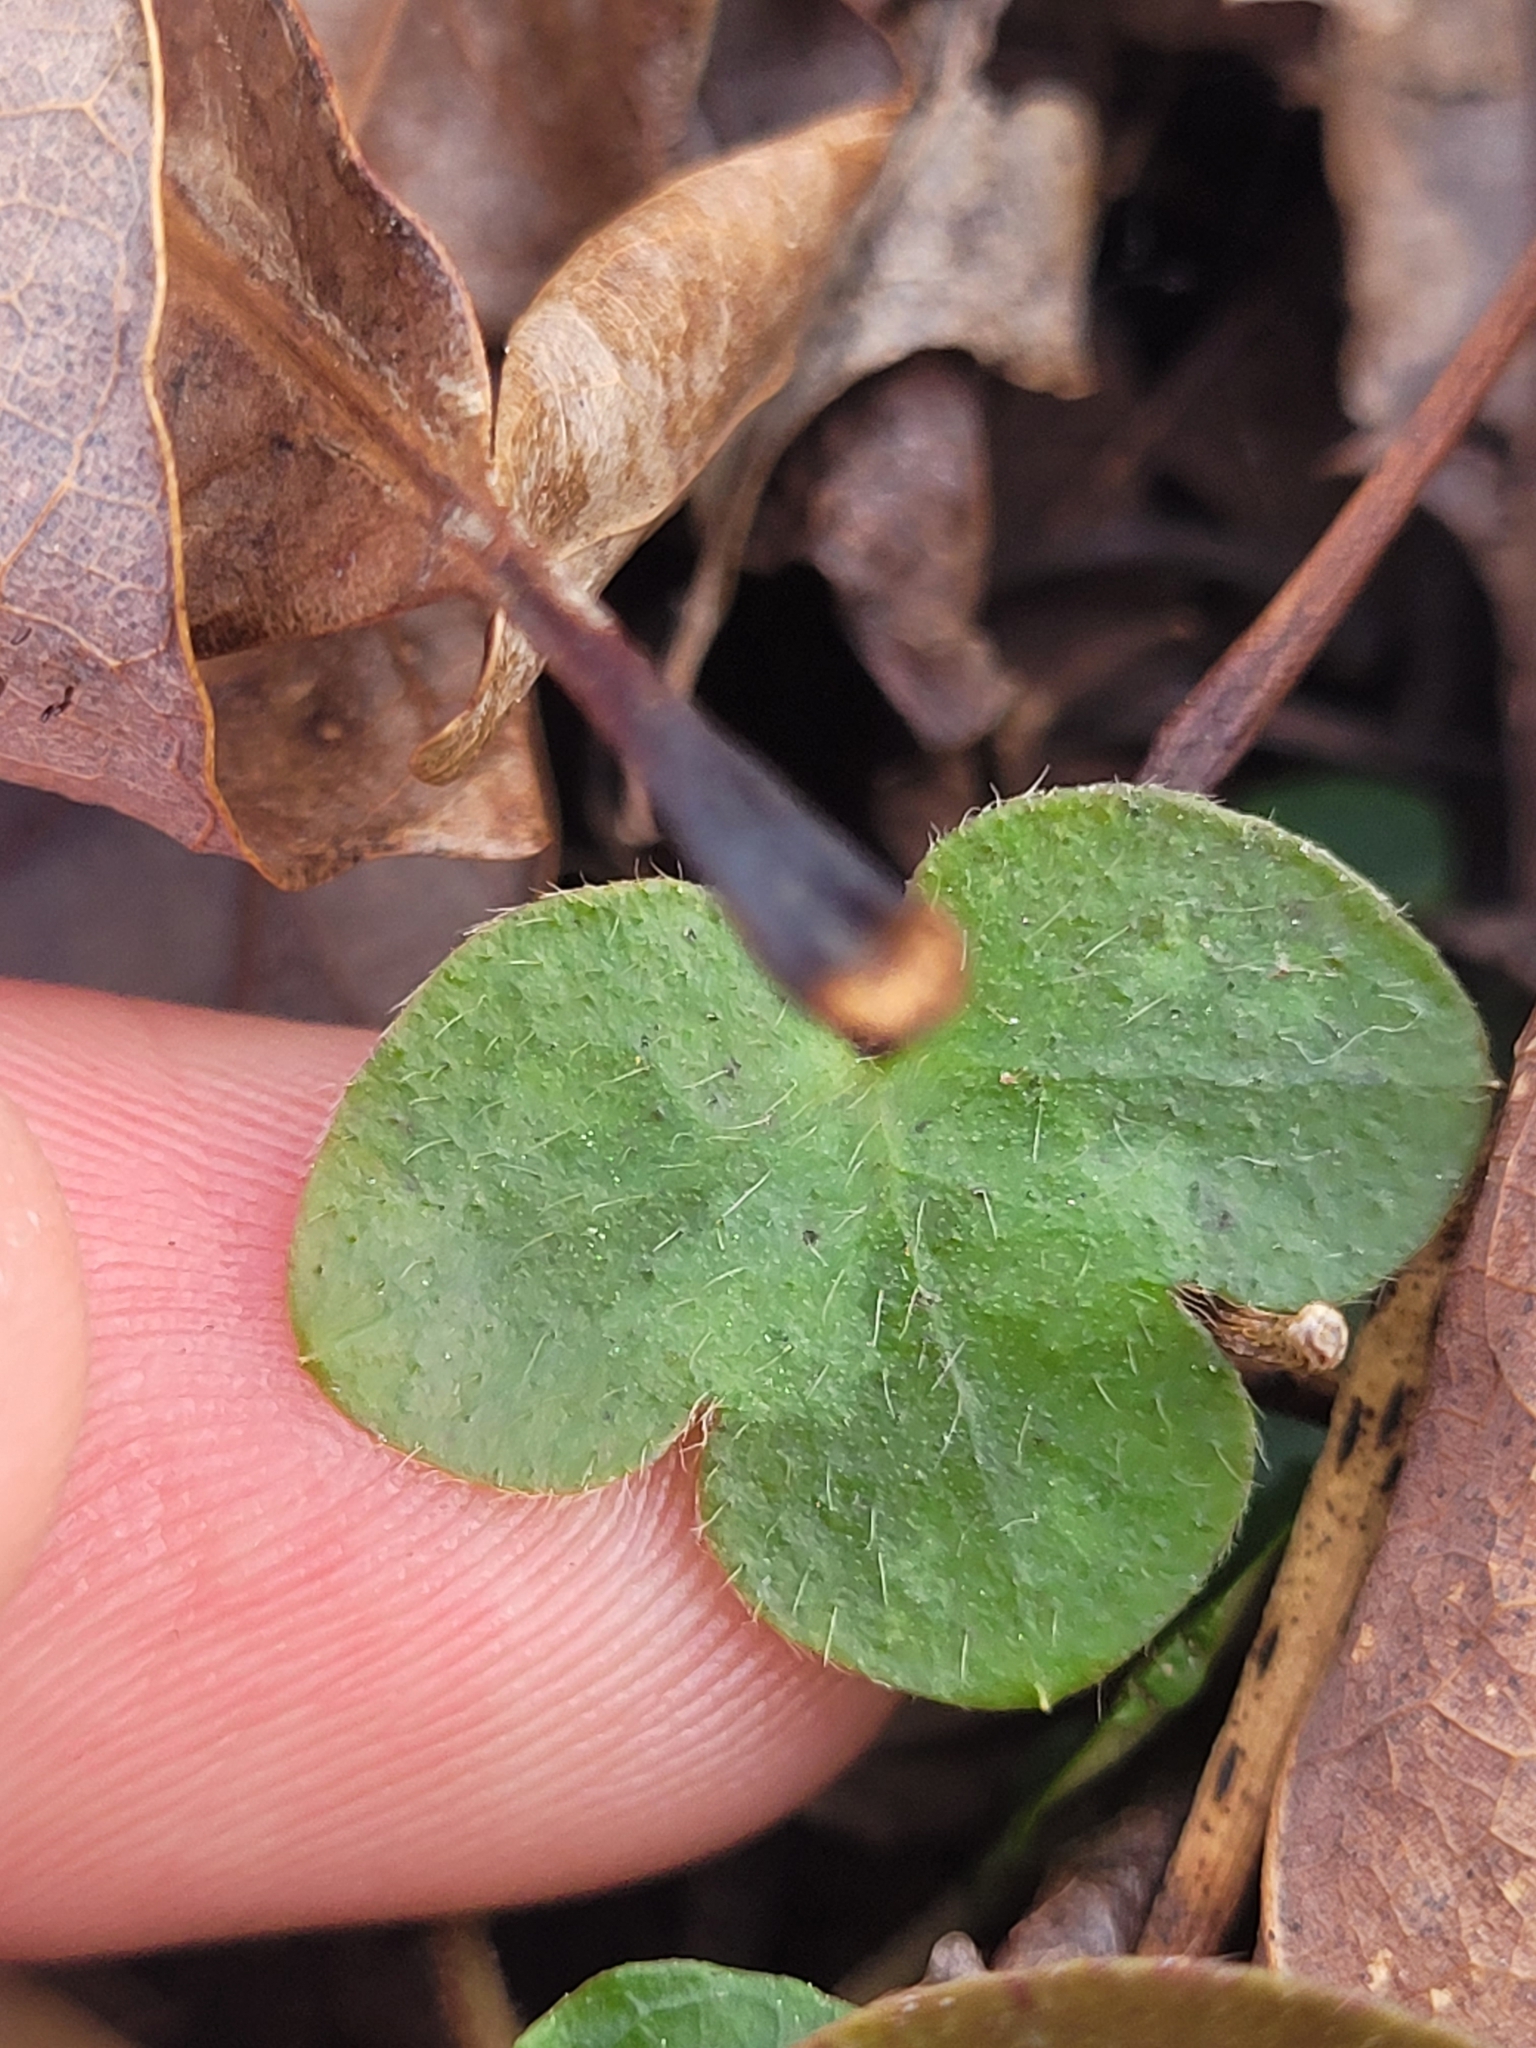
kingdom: Plantae
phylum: Tracheophyta
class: Magnoliopsida
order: Ranunculales
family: Ranunculaceae
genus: Hepatica
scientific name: Hepatica americana
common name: American hepatica
